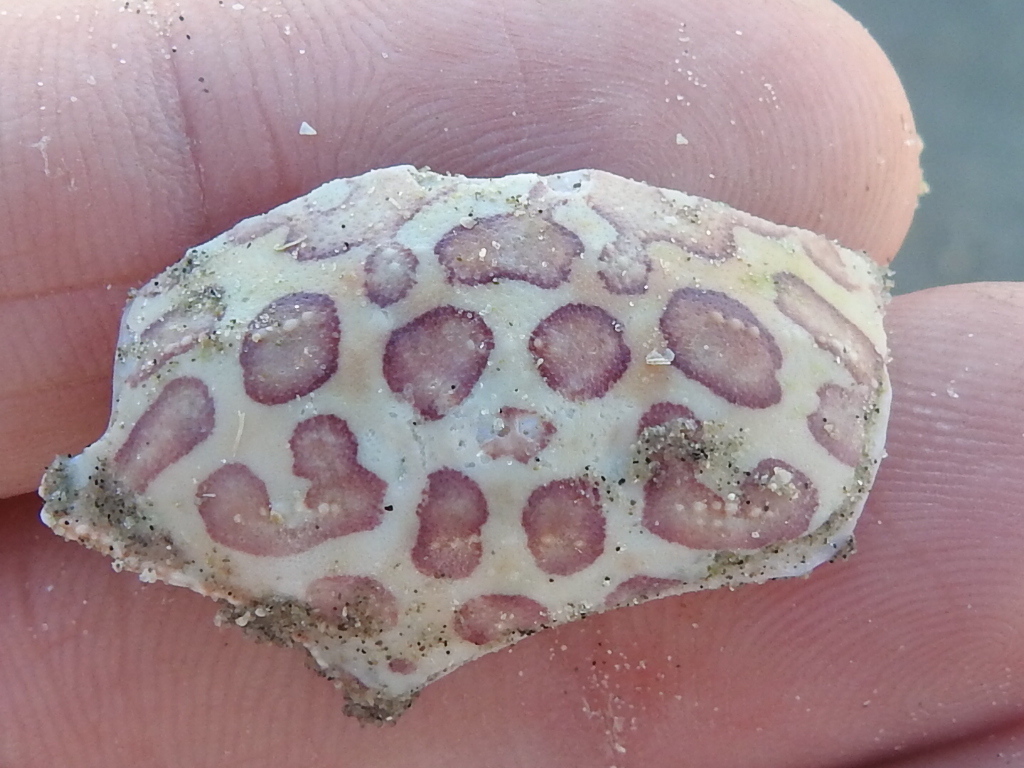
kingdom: Animalia
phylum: Arthropoda
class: Malacostraca
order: Decapoda
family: Aethridae
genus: Hepatus
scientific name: Hepatus epheliticus
